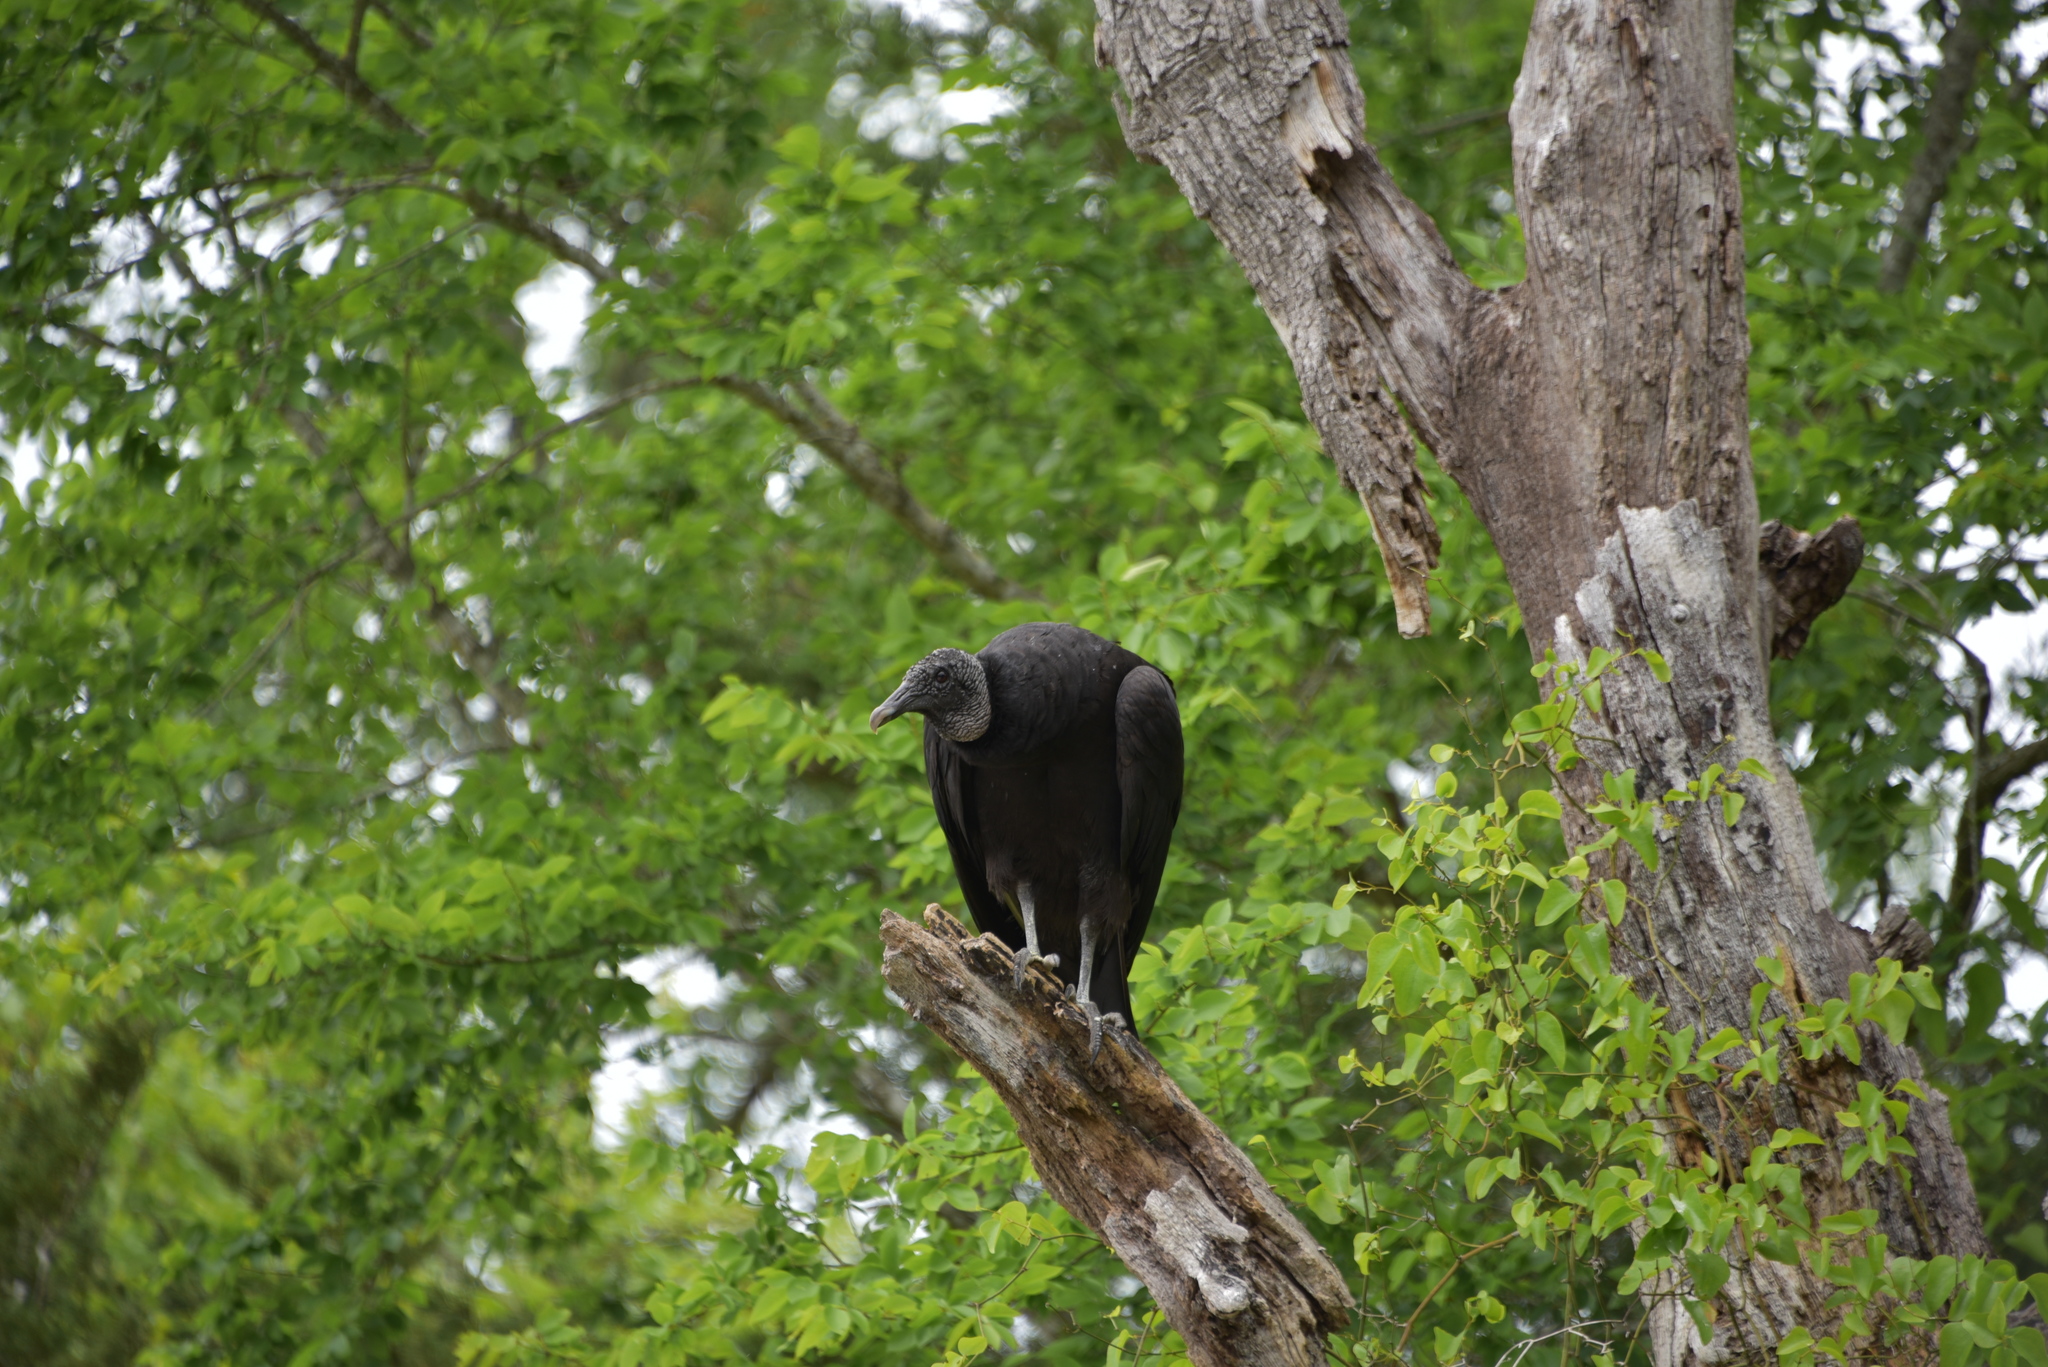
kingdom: Animalia
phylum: Chordata
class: Aves
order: Accipitriformes
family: Cathartidae
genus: Coragyps
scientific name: Coragyps atratus
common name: Black vulture
